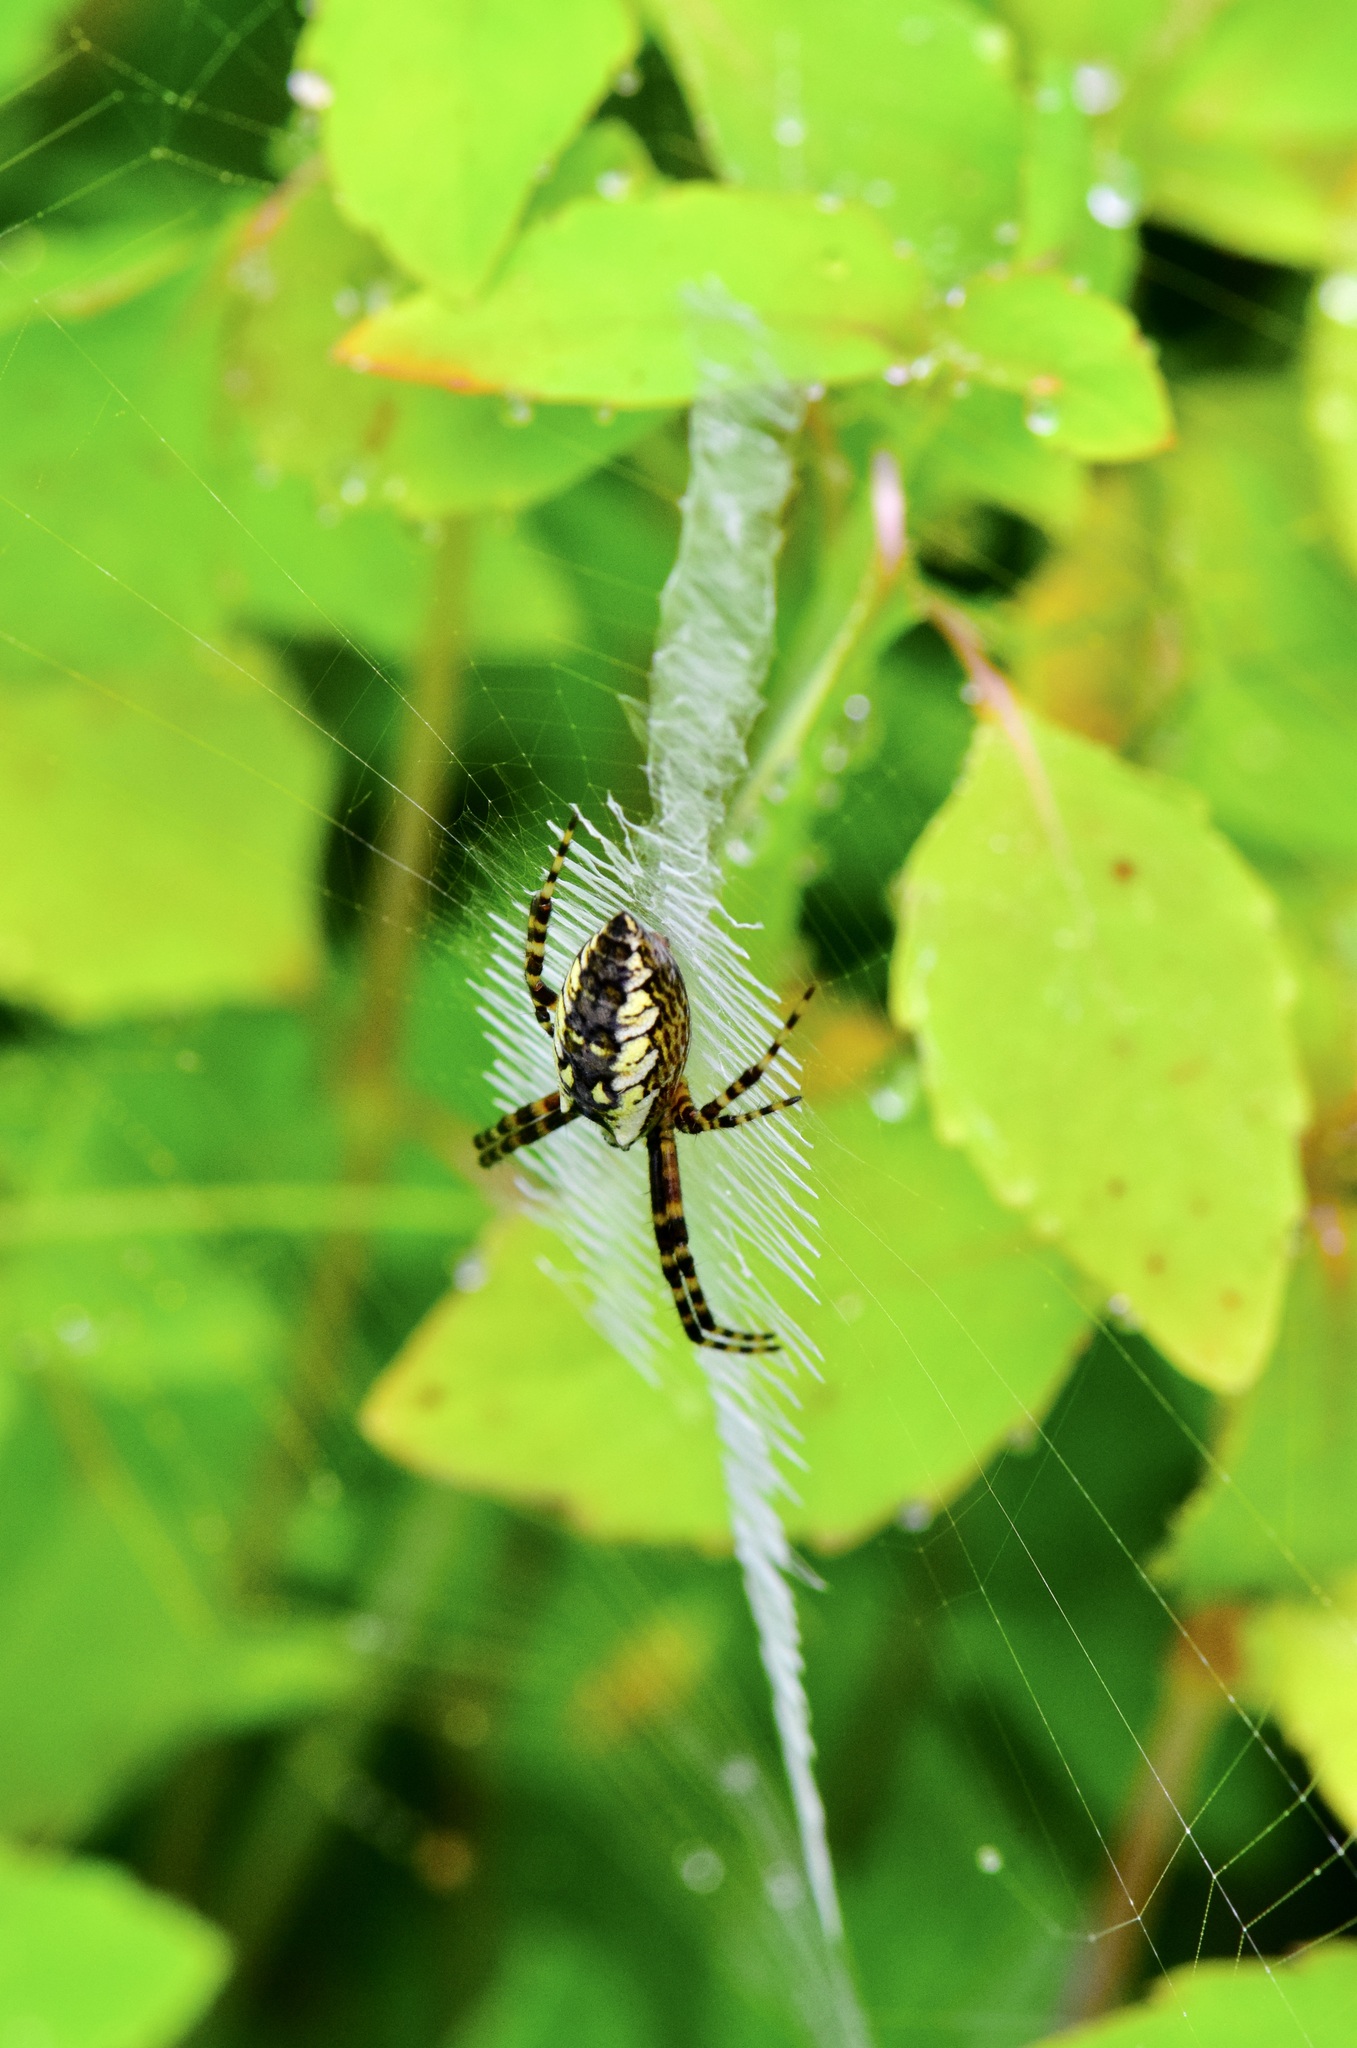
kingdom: Animalia
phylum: Arthropoda
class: Arachnida
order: Araneae
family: Araneidae
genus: Argiope
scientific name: Argiope aurantia
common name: Orb weavers
